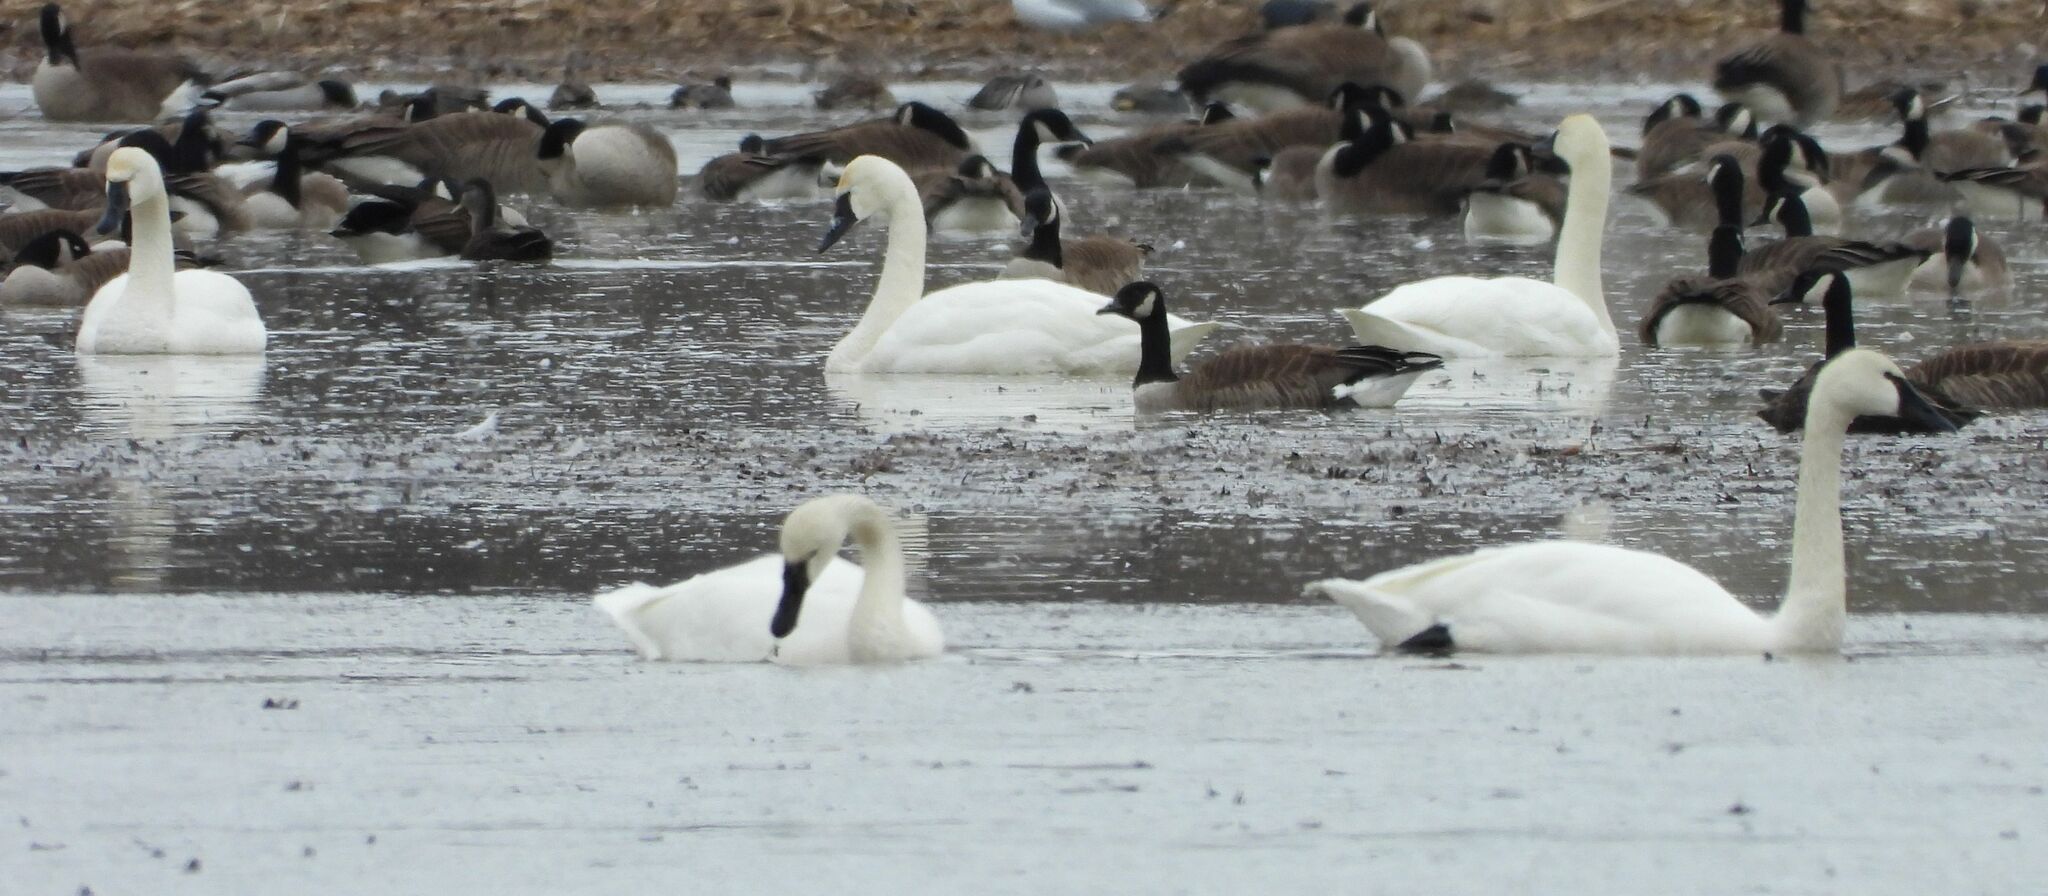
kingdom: Animalia
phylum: Chordata
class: Aves
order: Anseriformes
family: Anatidae
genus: Cygnus
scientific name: Cygnus columbianus
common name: Tundra swan
